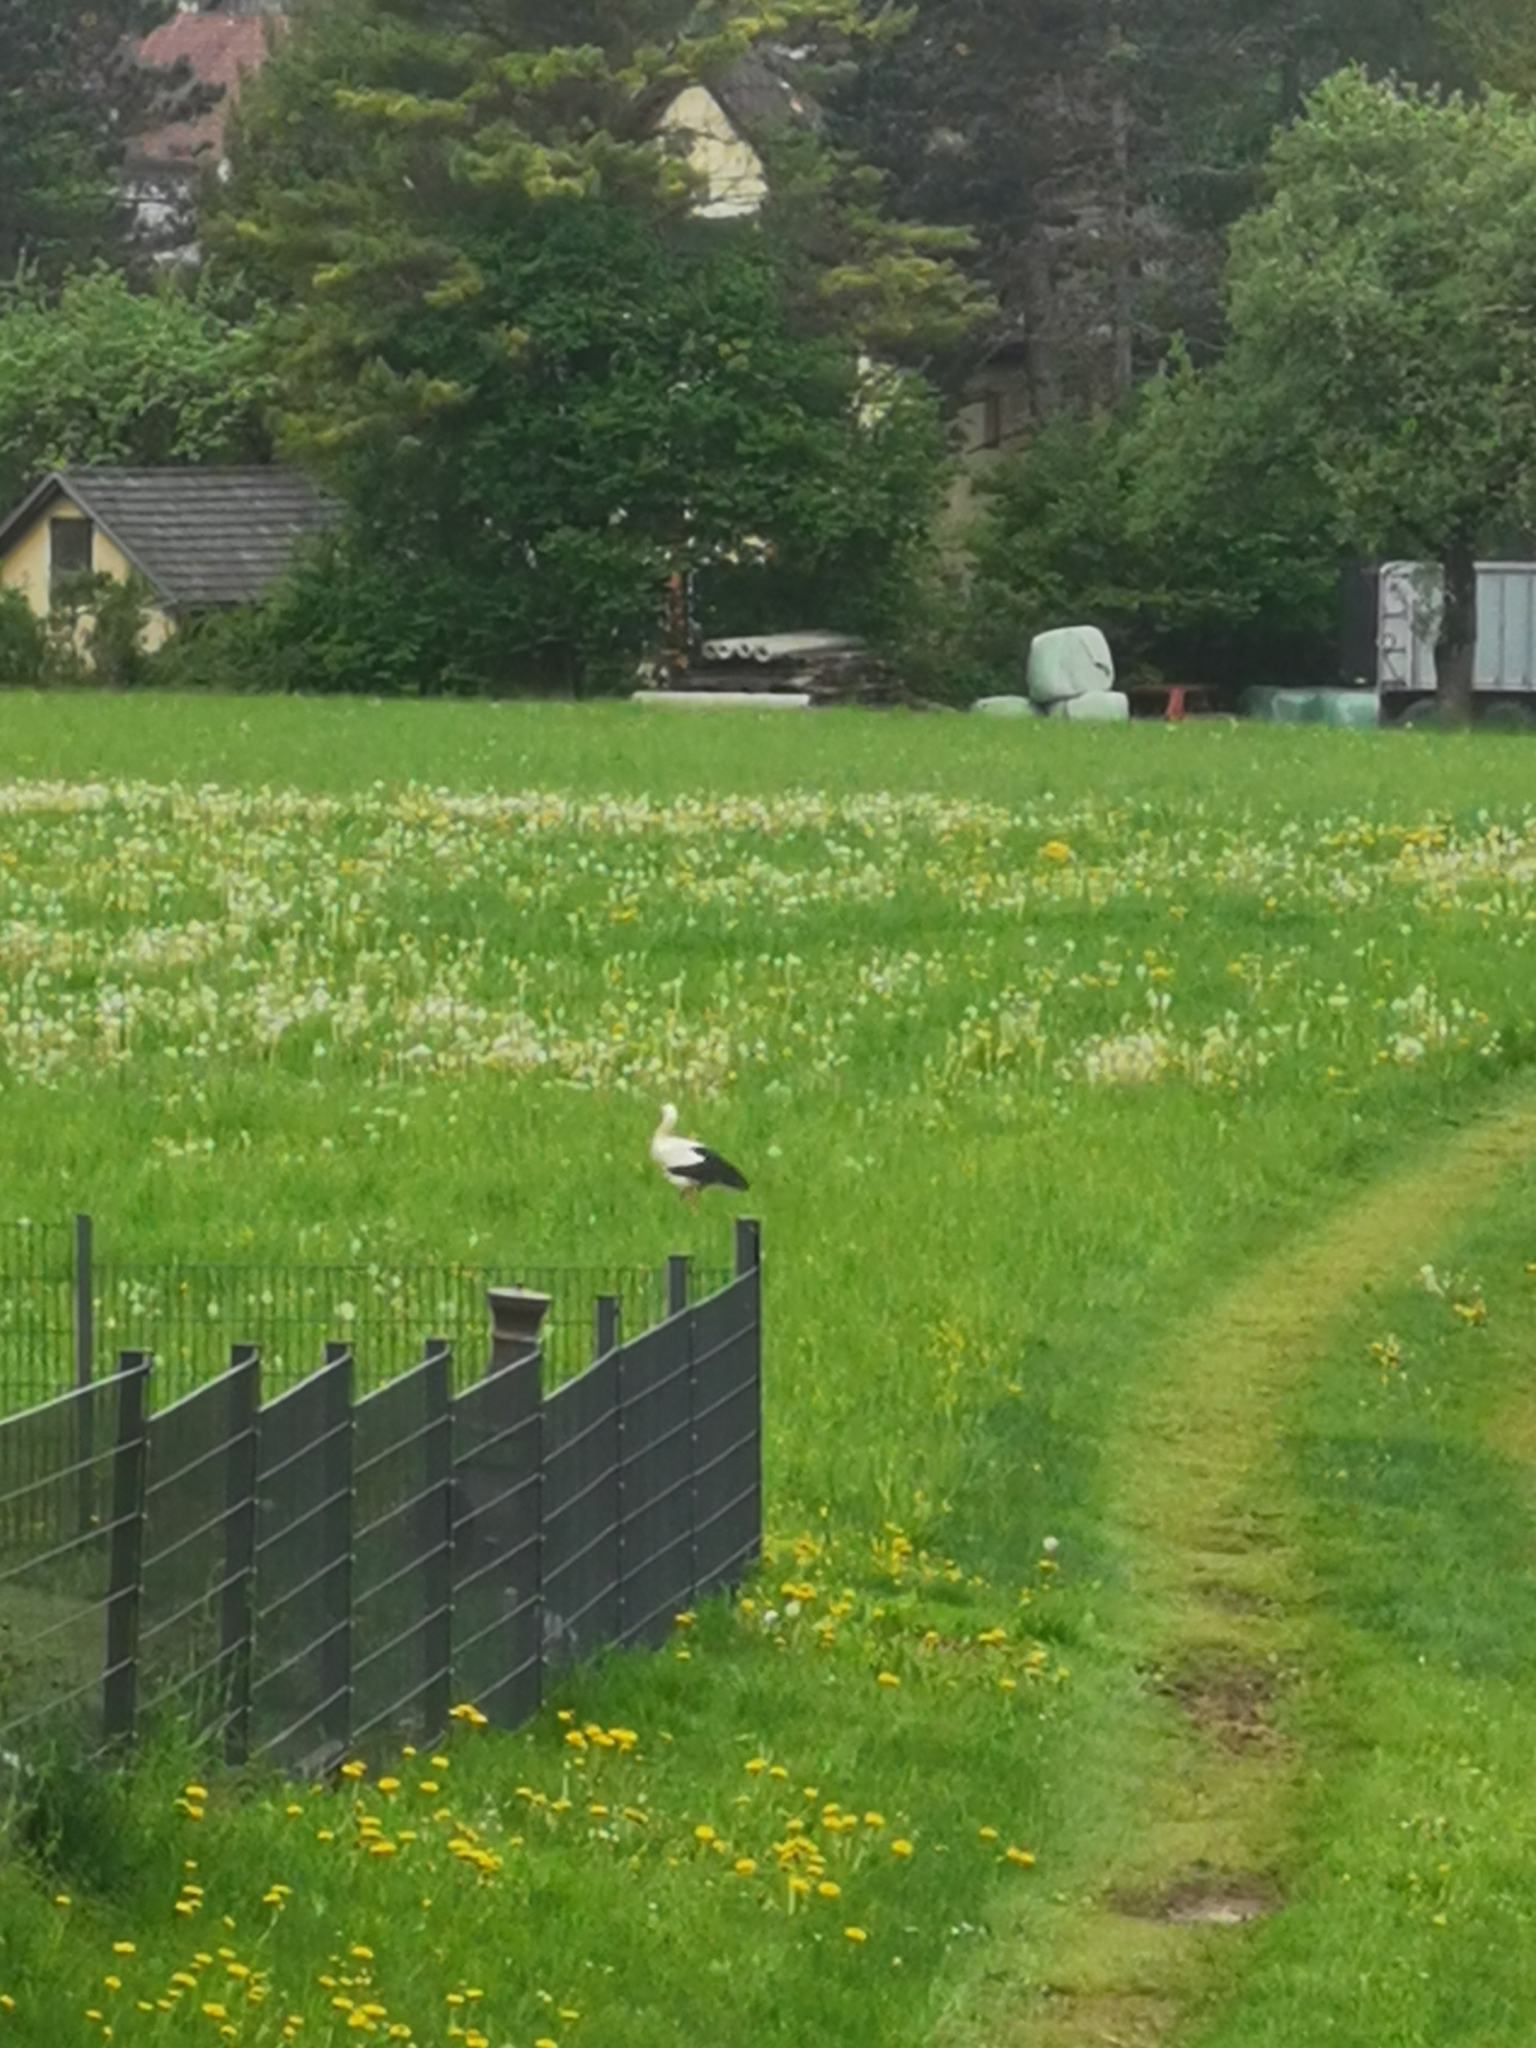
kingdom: Animalia
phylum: Chordata
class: Aves
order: Ciconiiformes
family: Ciconiidae
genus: Ciconia
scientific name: Ciconia ciconia
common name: White stork
